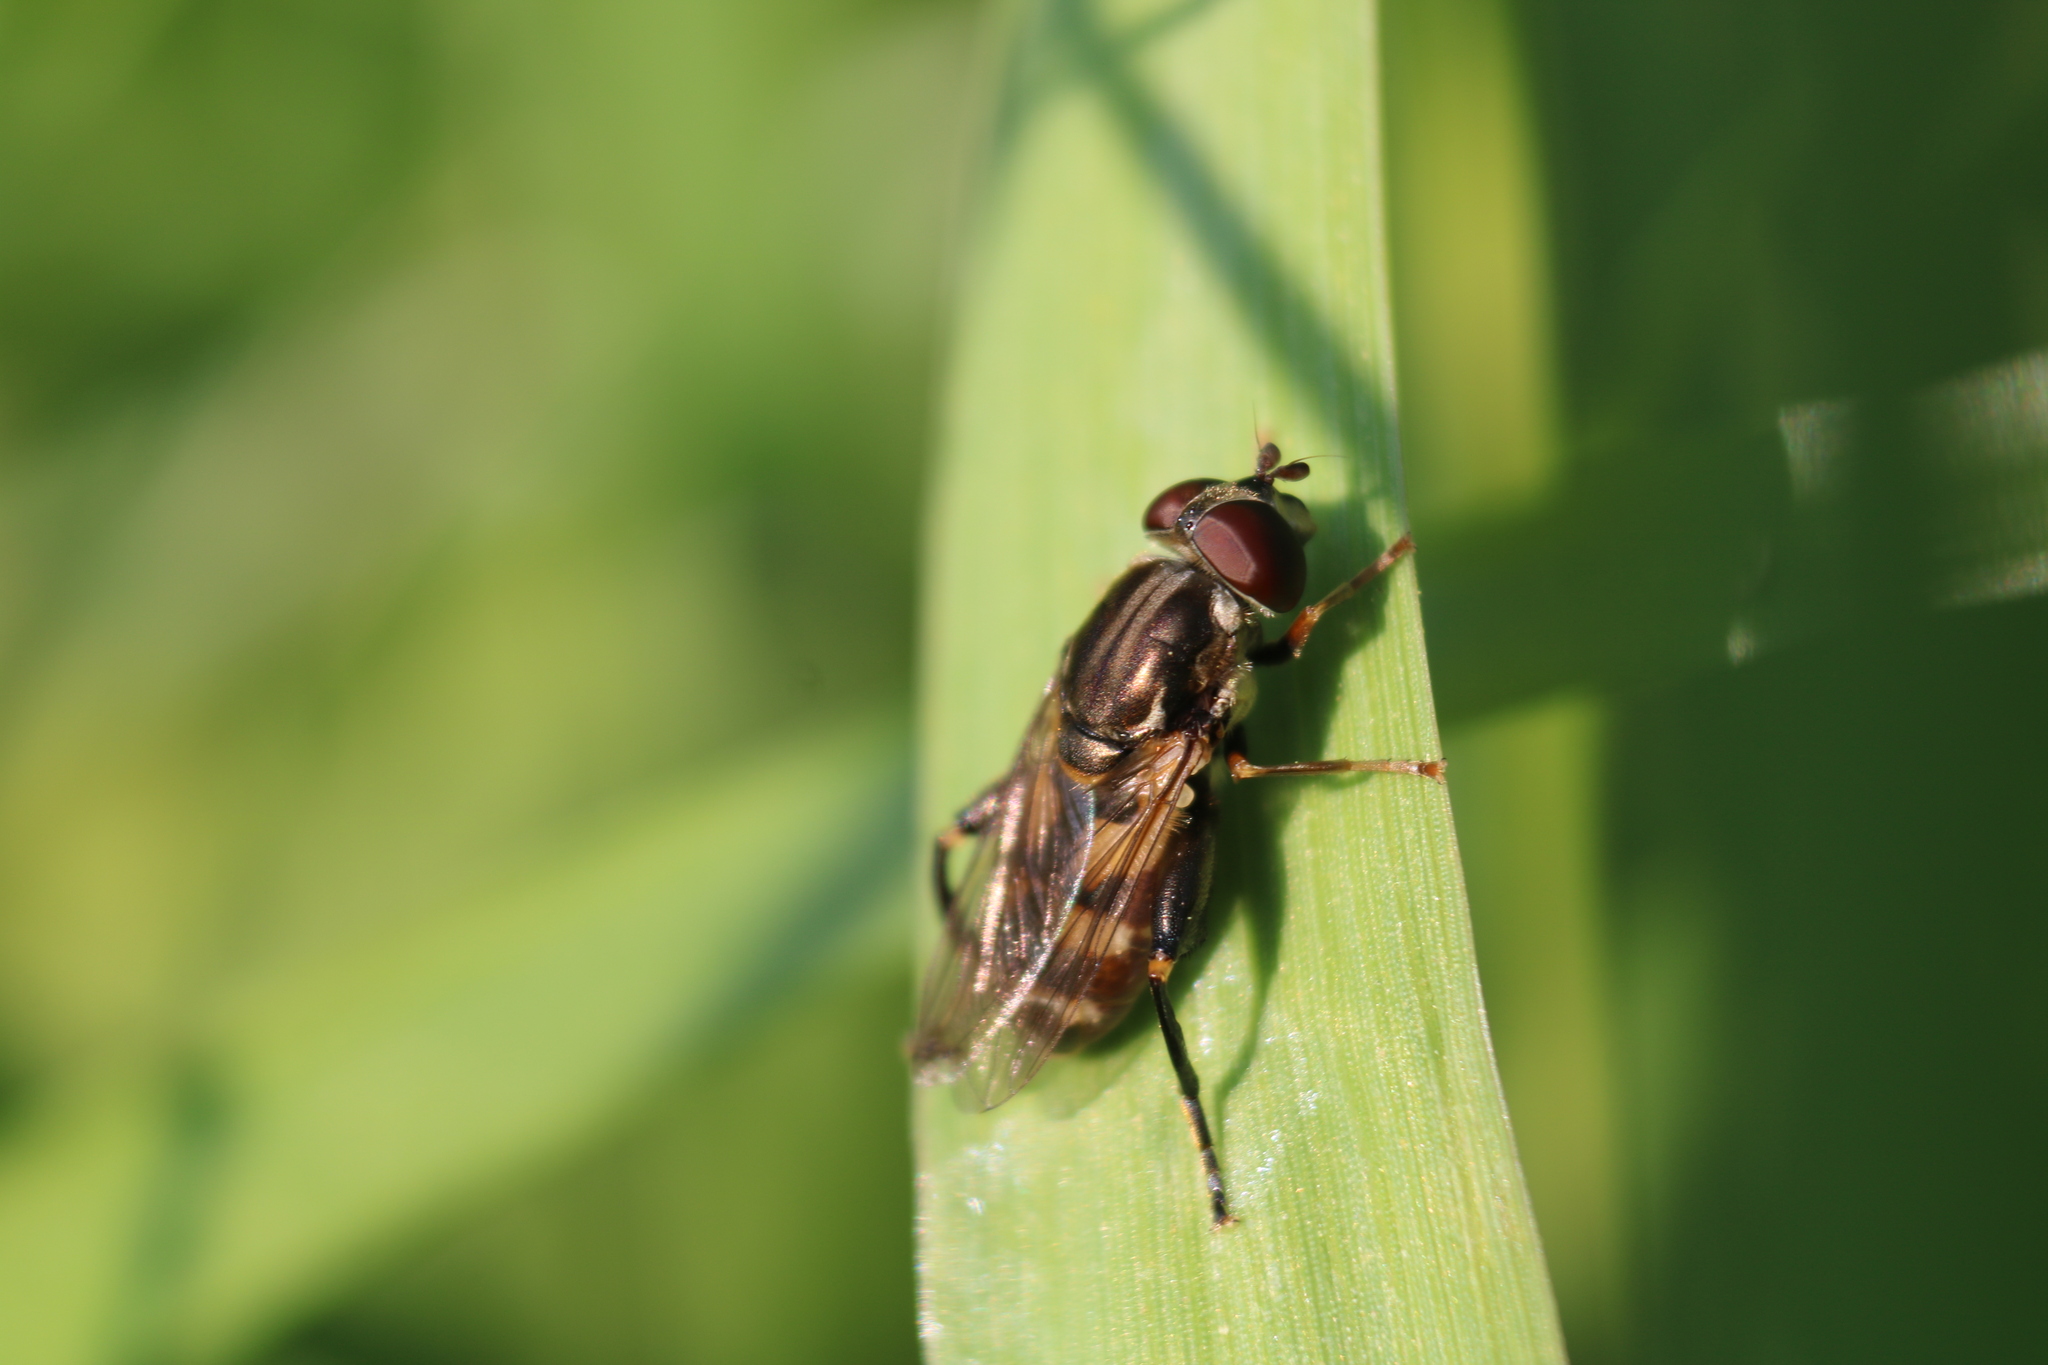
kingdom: Animalia
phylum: Arthropoda
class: Insecta
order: Diptera
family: Syrphidae
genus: Tropidia
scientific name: Tropidia quadrata
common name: Common thick-legged fly
